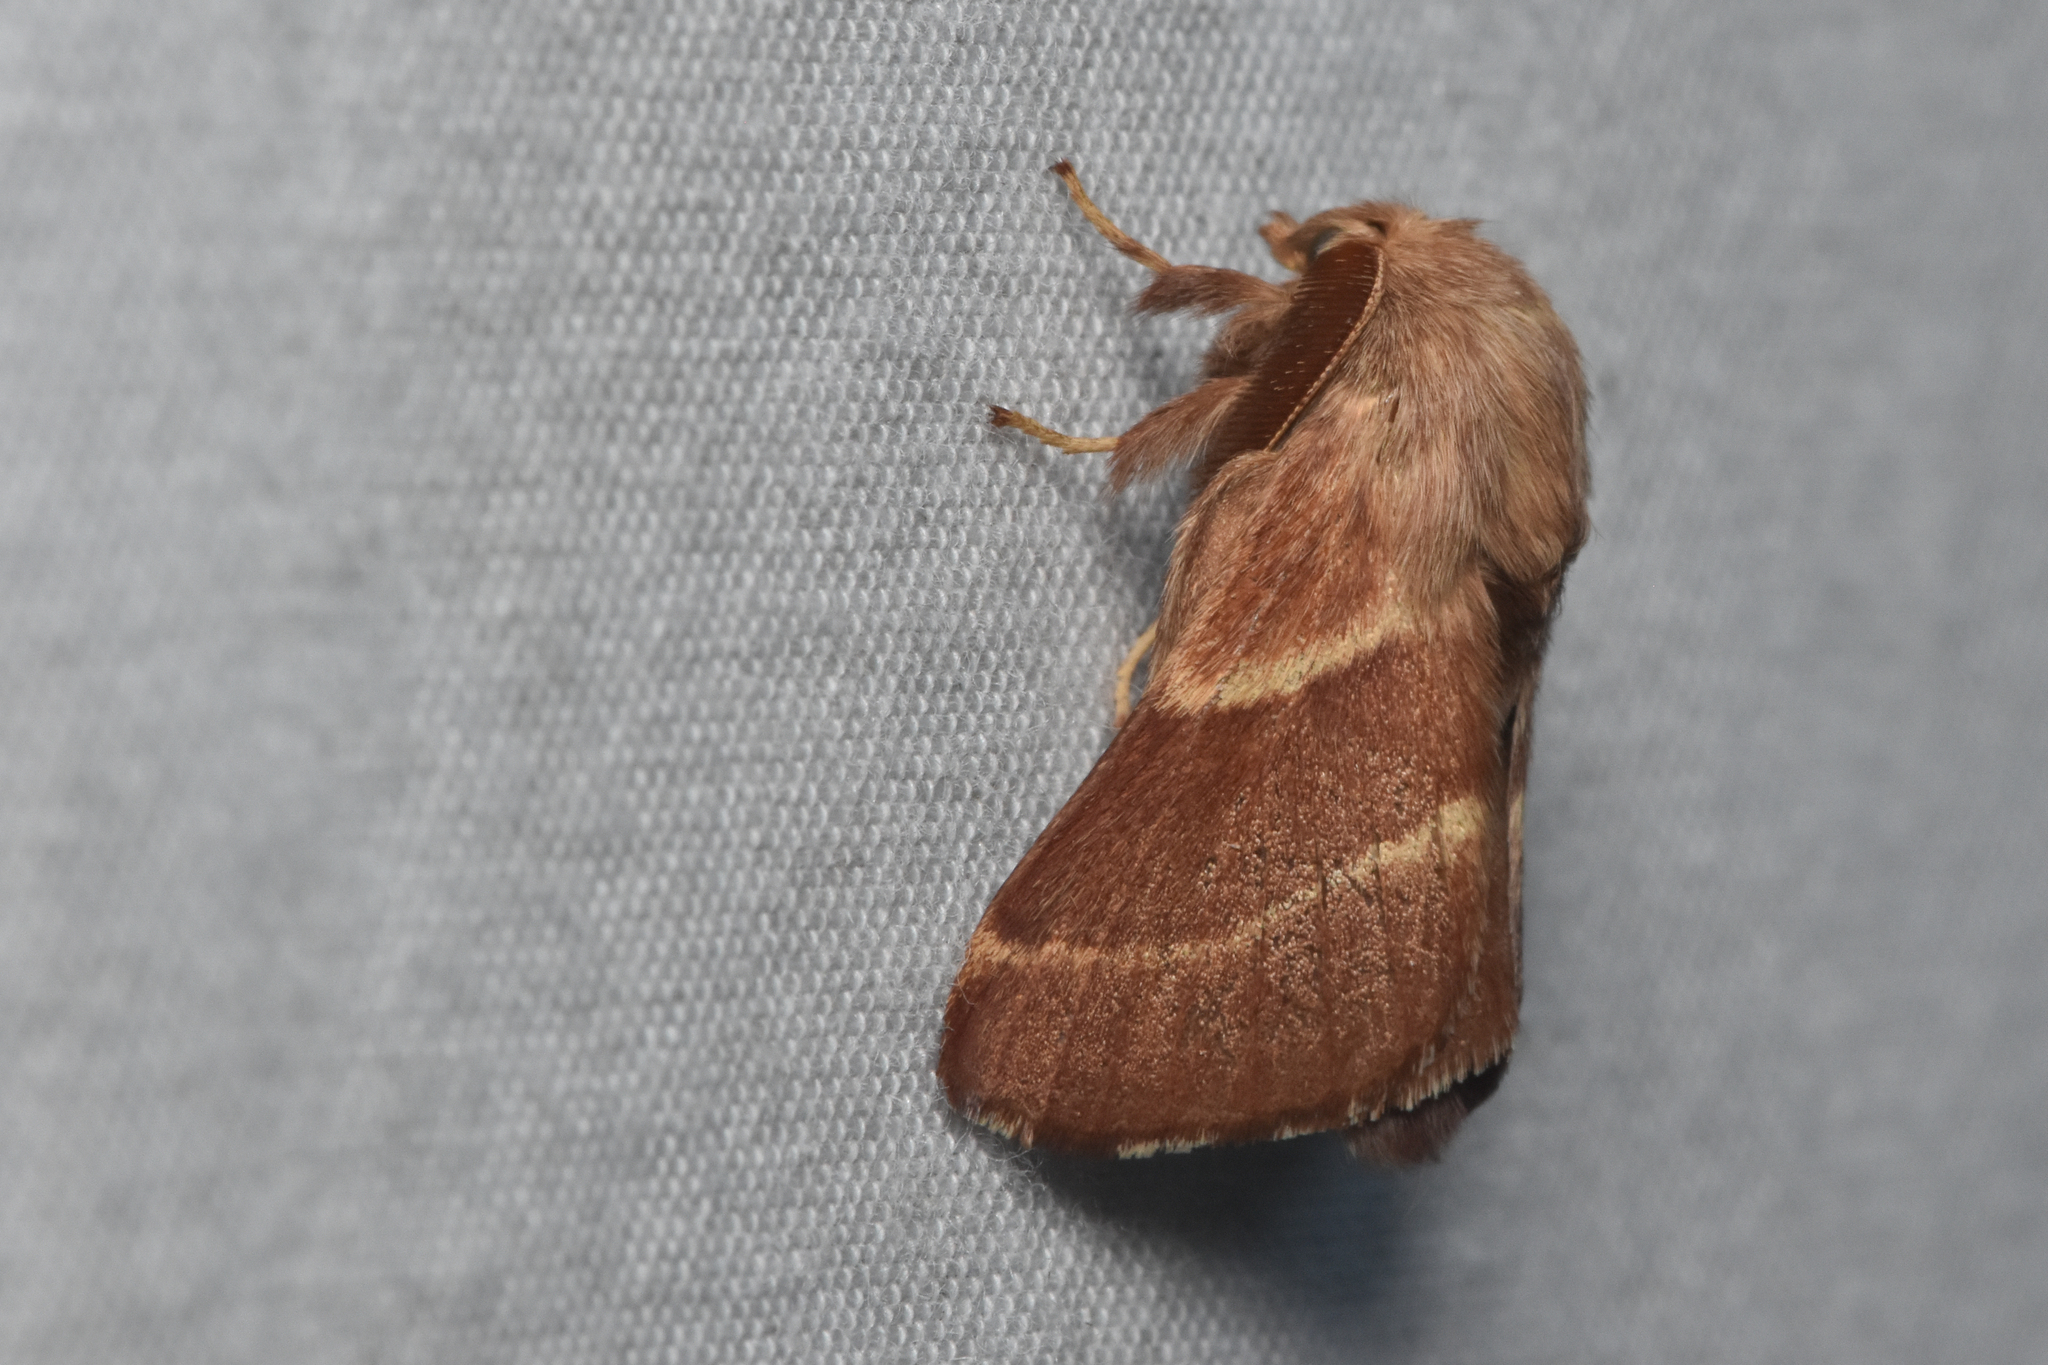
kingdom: Animalia
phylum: Arthropoda
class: Insecta
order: Lepidoptera
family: Lasiocampidae
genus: Malacosoma
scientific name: Malacosoma californica
